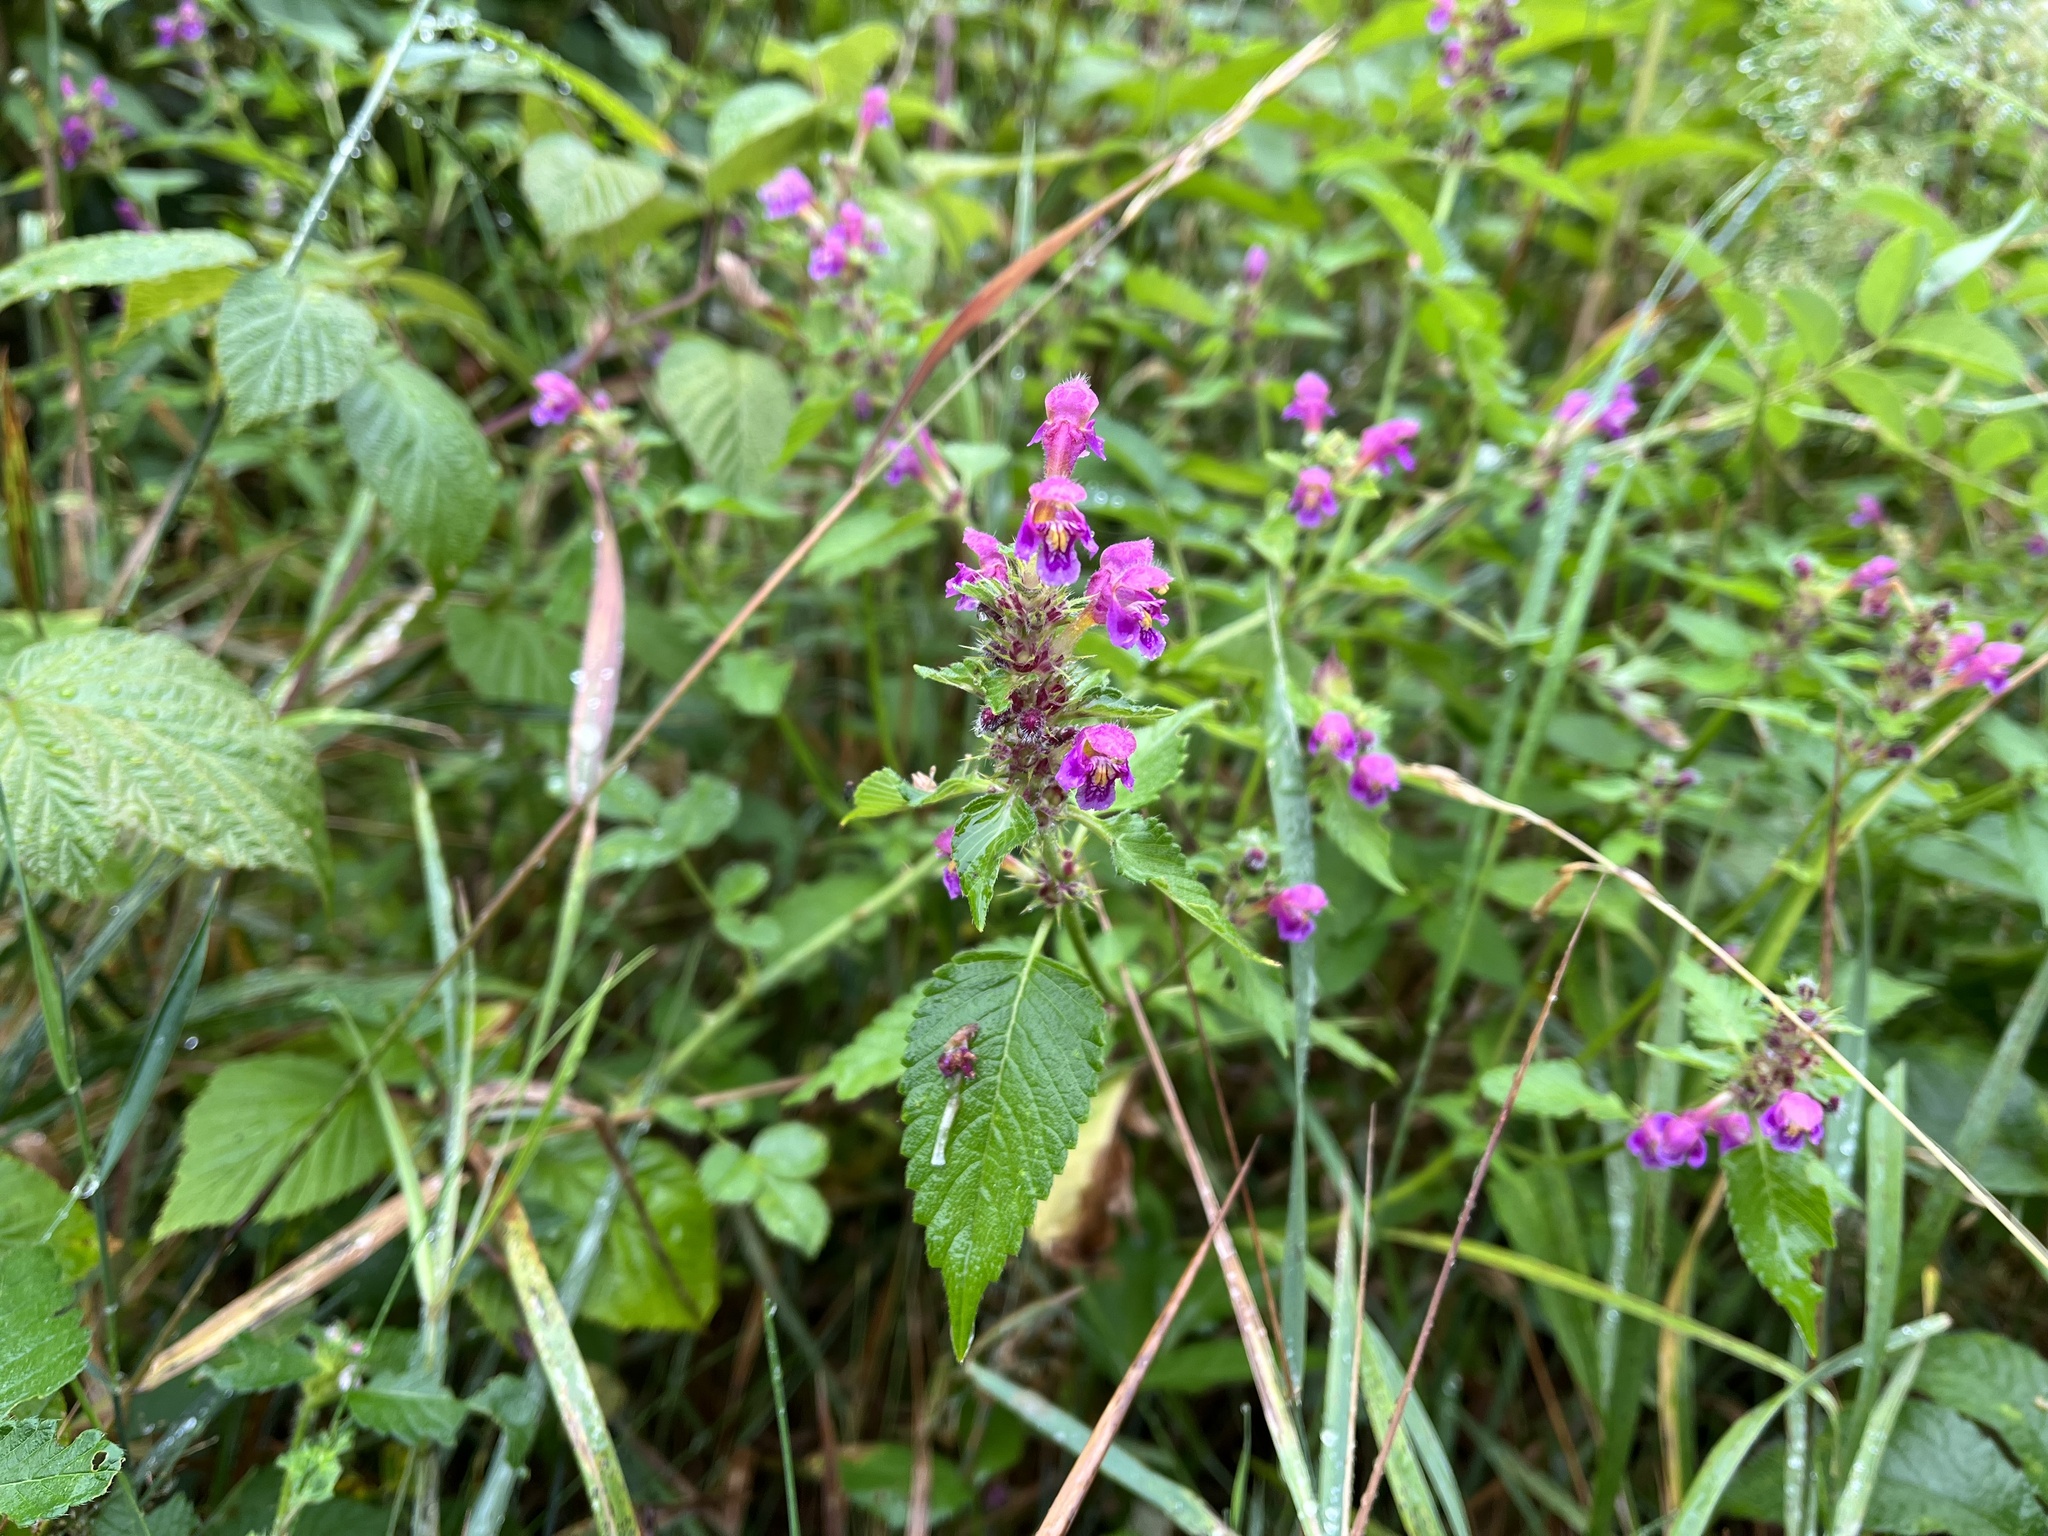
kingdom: Plantae
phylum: Tracheophyta
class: Magnoliopsida
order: Lamiales
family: Lamiaceae
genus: Galeopsis
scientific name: Galeopsis pubescens
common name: Downy hemp-nettle
